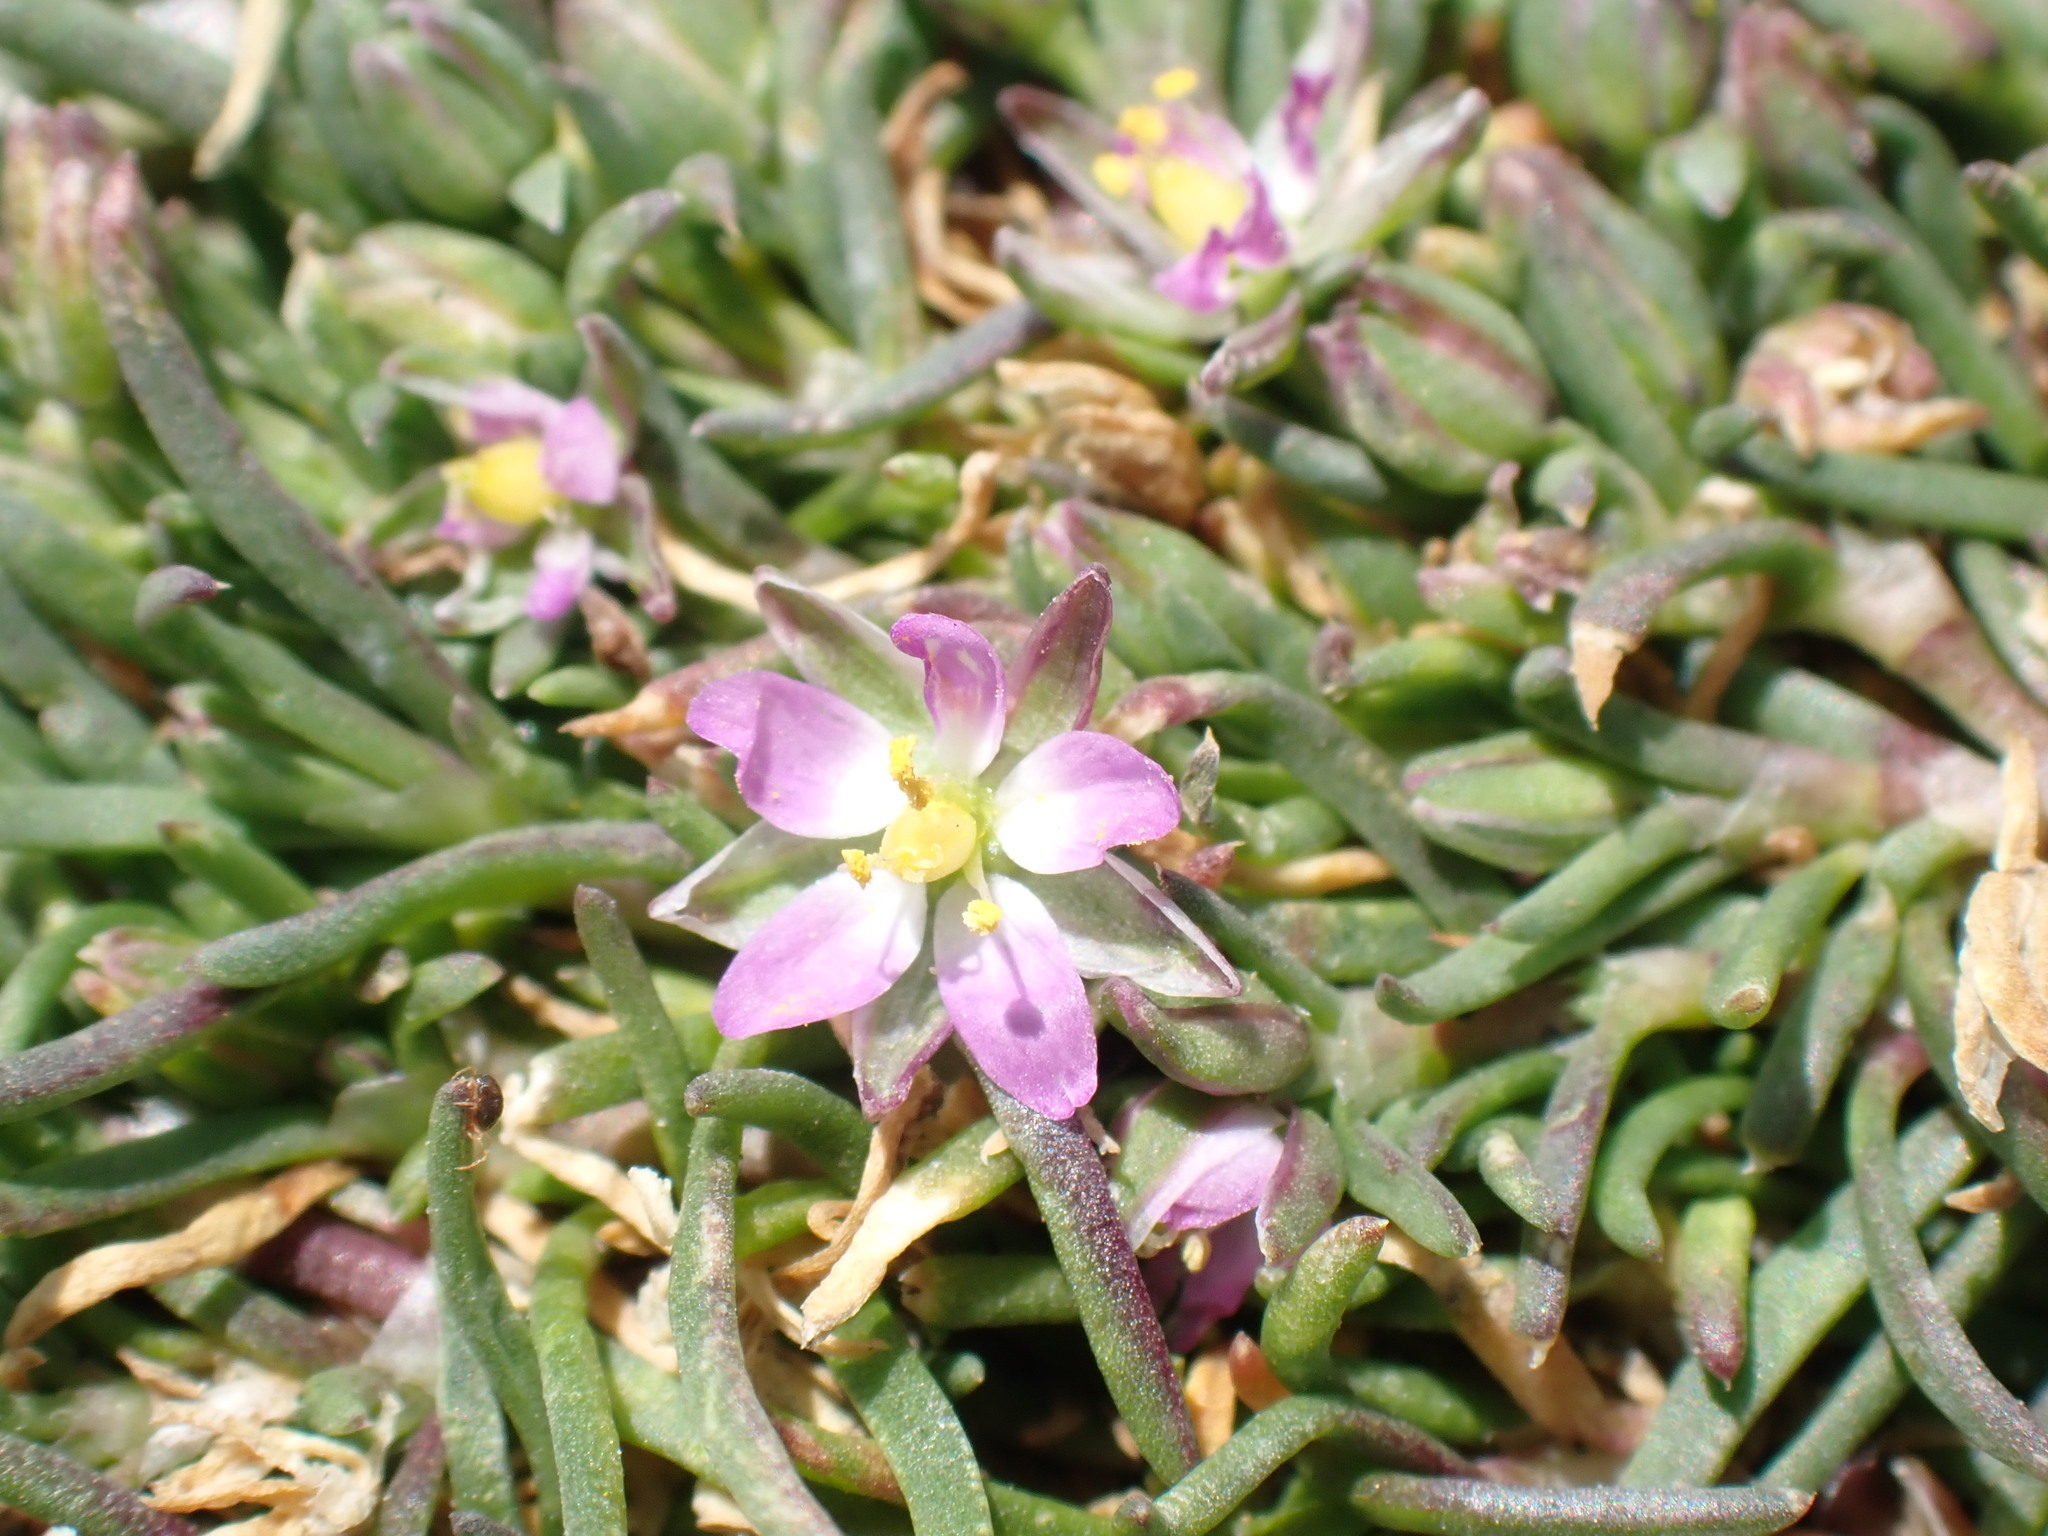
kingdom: Plantae
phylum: Tracheophyta
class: Magnoliopsida
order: Caryophyllales
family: Caryophyllaceae
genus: Spergularia
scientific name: Spergularia marina
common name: Lesser sea-spurrey
